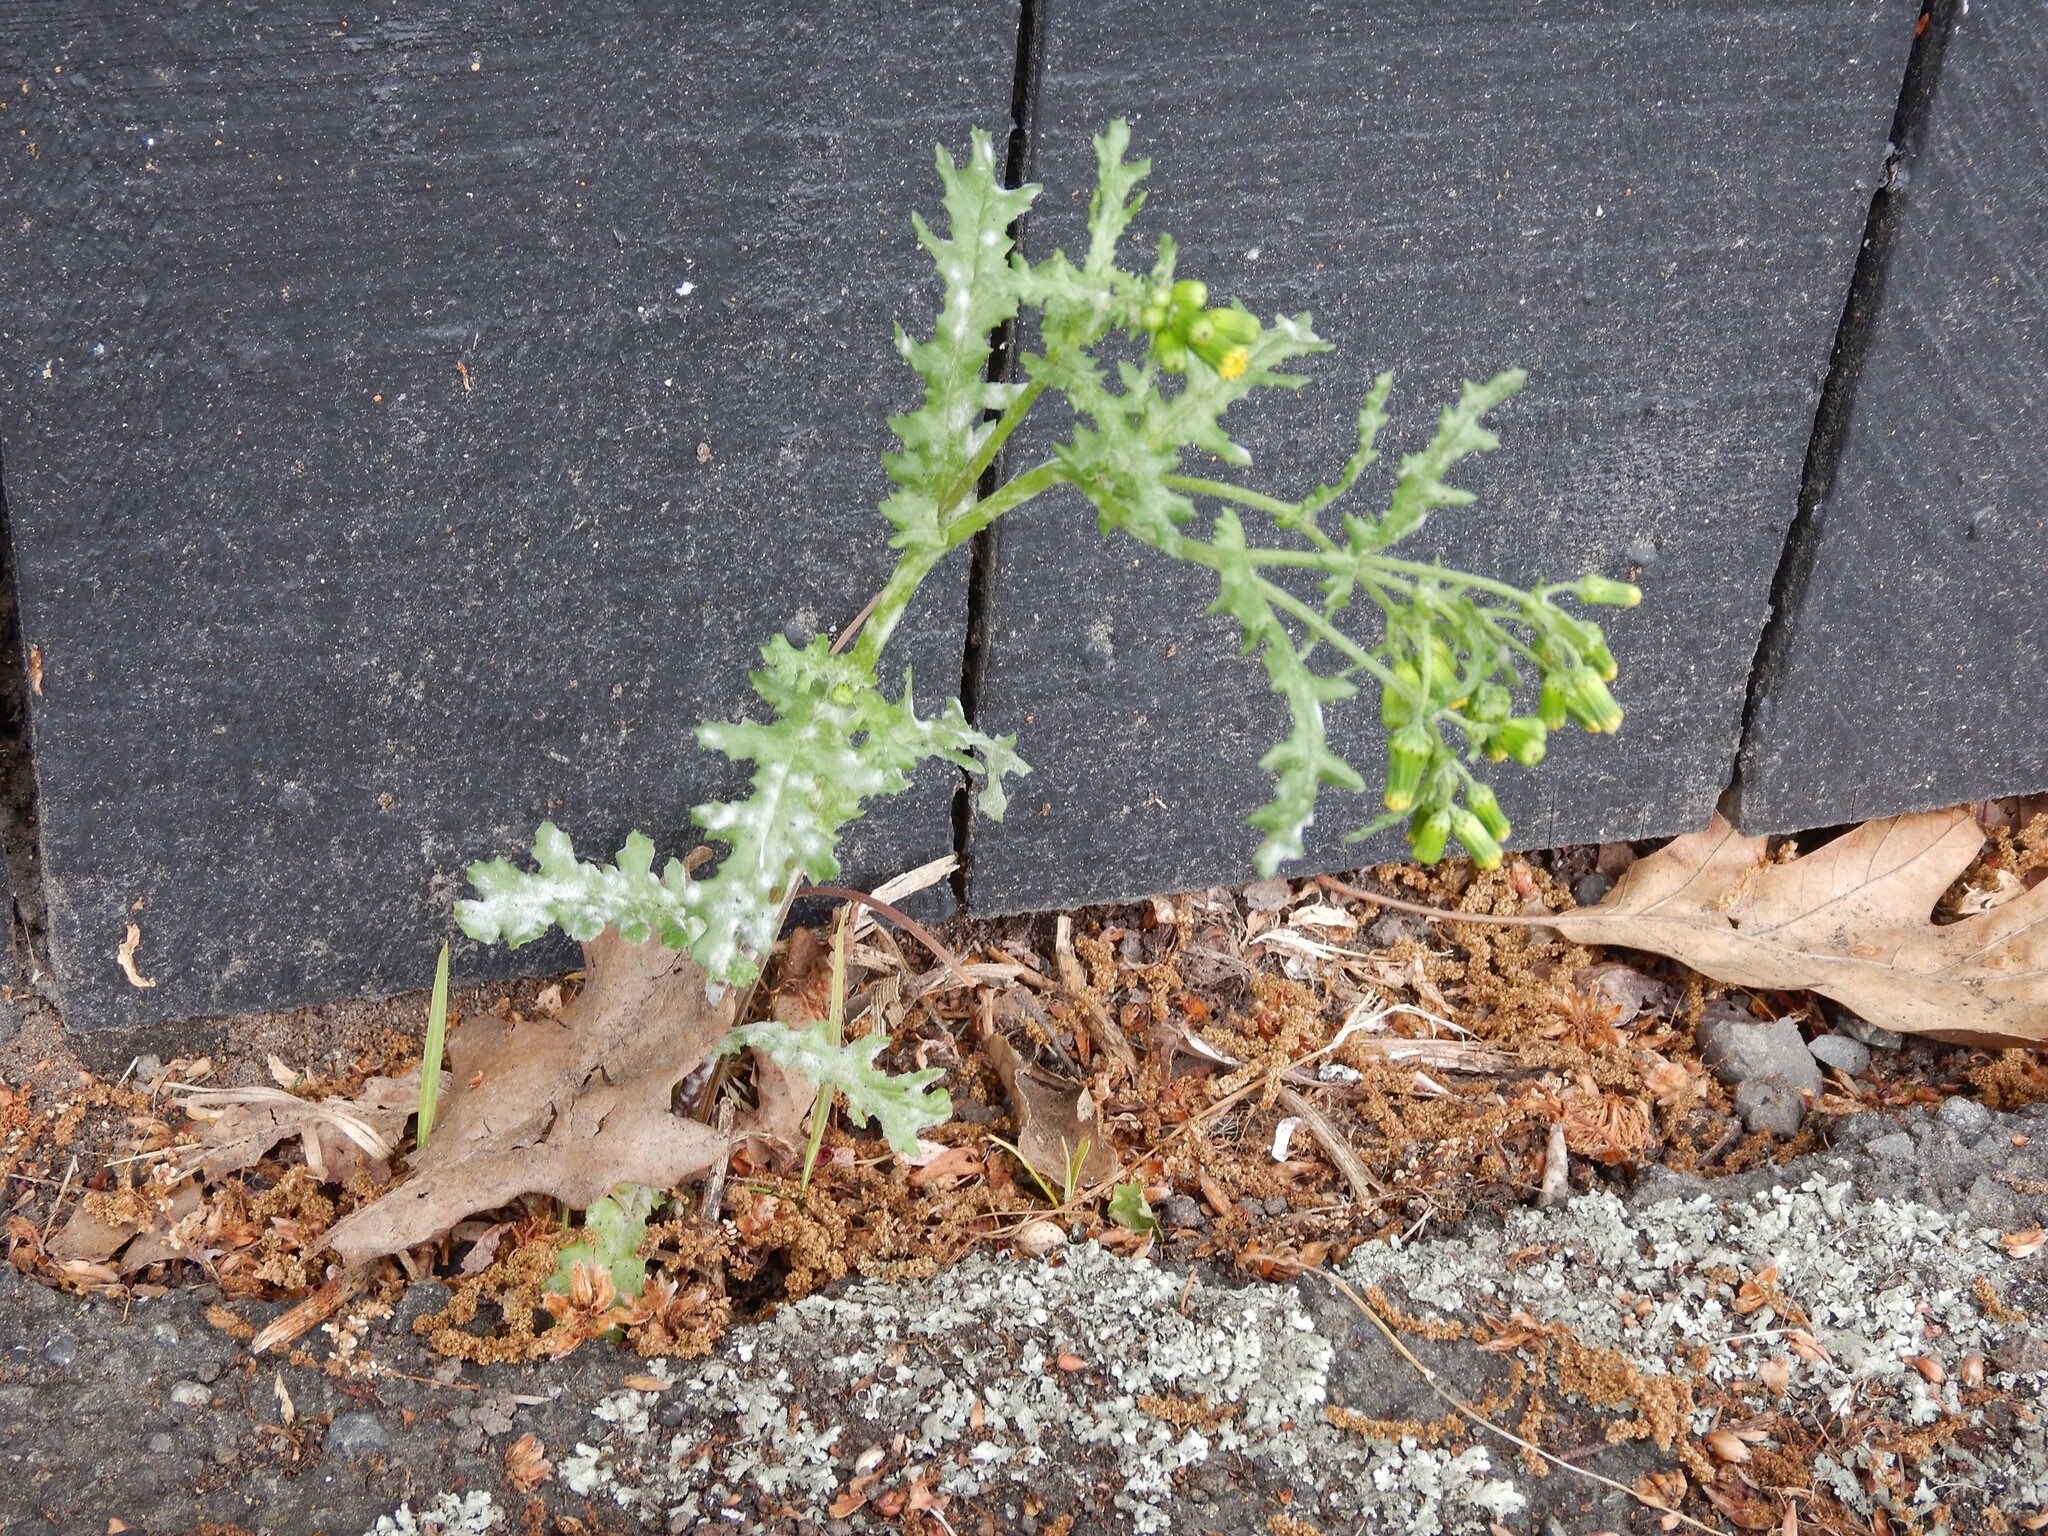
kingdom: Plantae
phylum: Tracheophyta
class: Magnoliopsida
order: Asterales
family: Asteraceae
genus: Senecio
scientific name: Senecio vulgaris
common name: Old-man-in-the-spring
